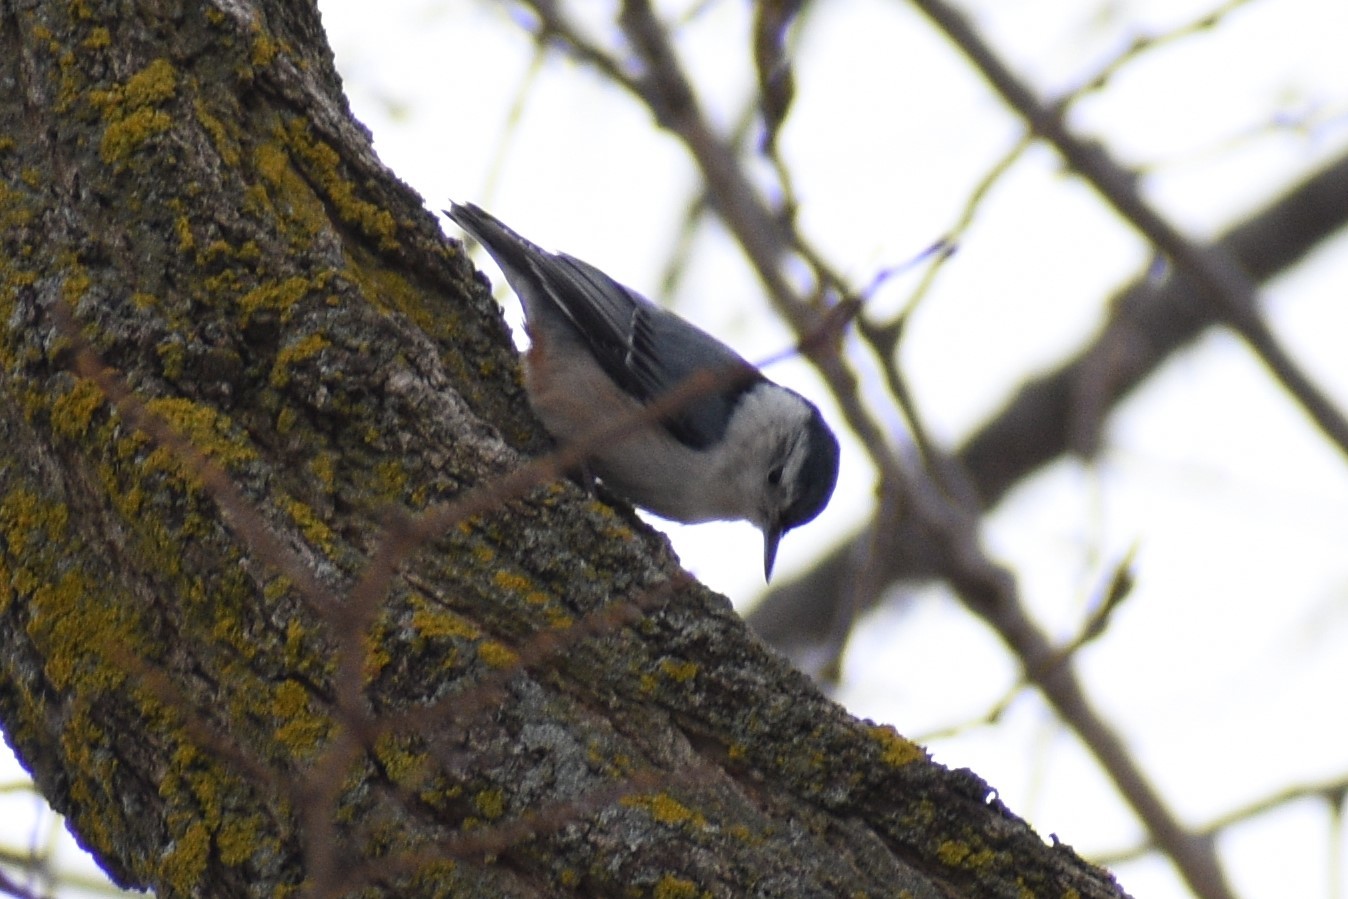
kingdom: Animalia
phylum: Chordata
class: Aves
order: Passeriformes
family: Sittidae
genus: Sitta
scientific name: Sitta carolinensis
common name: White-breasted nuthatch
